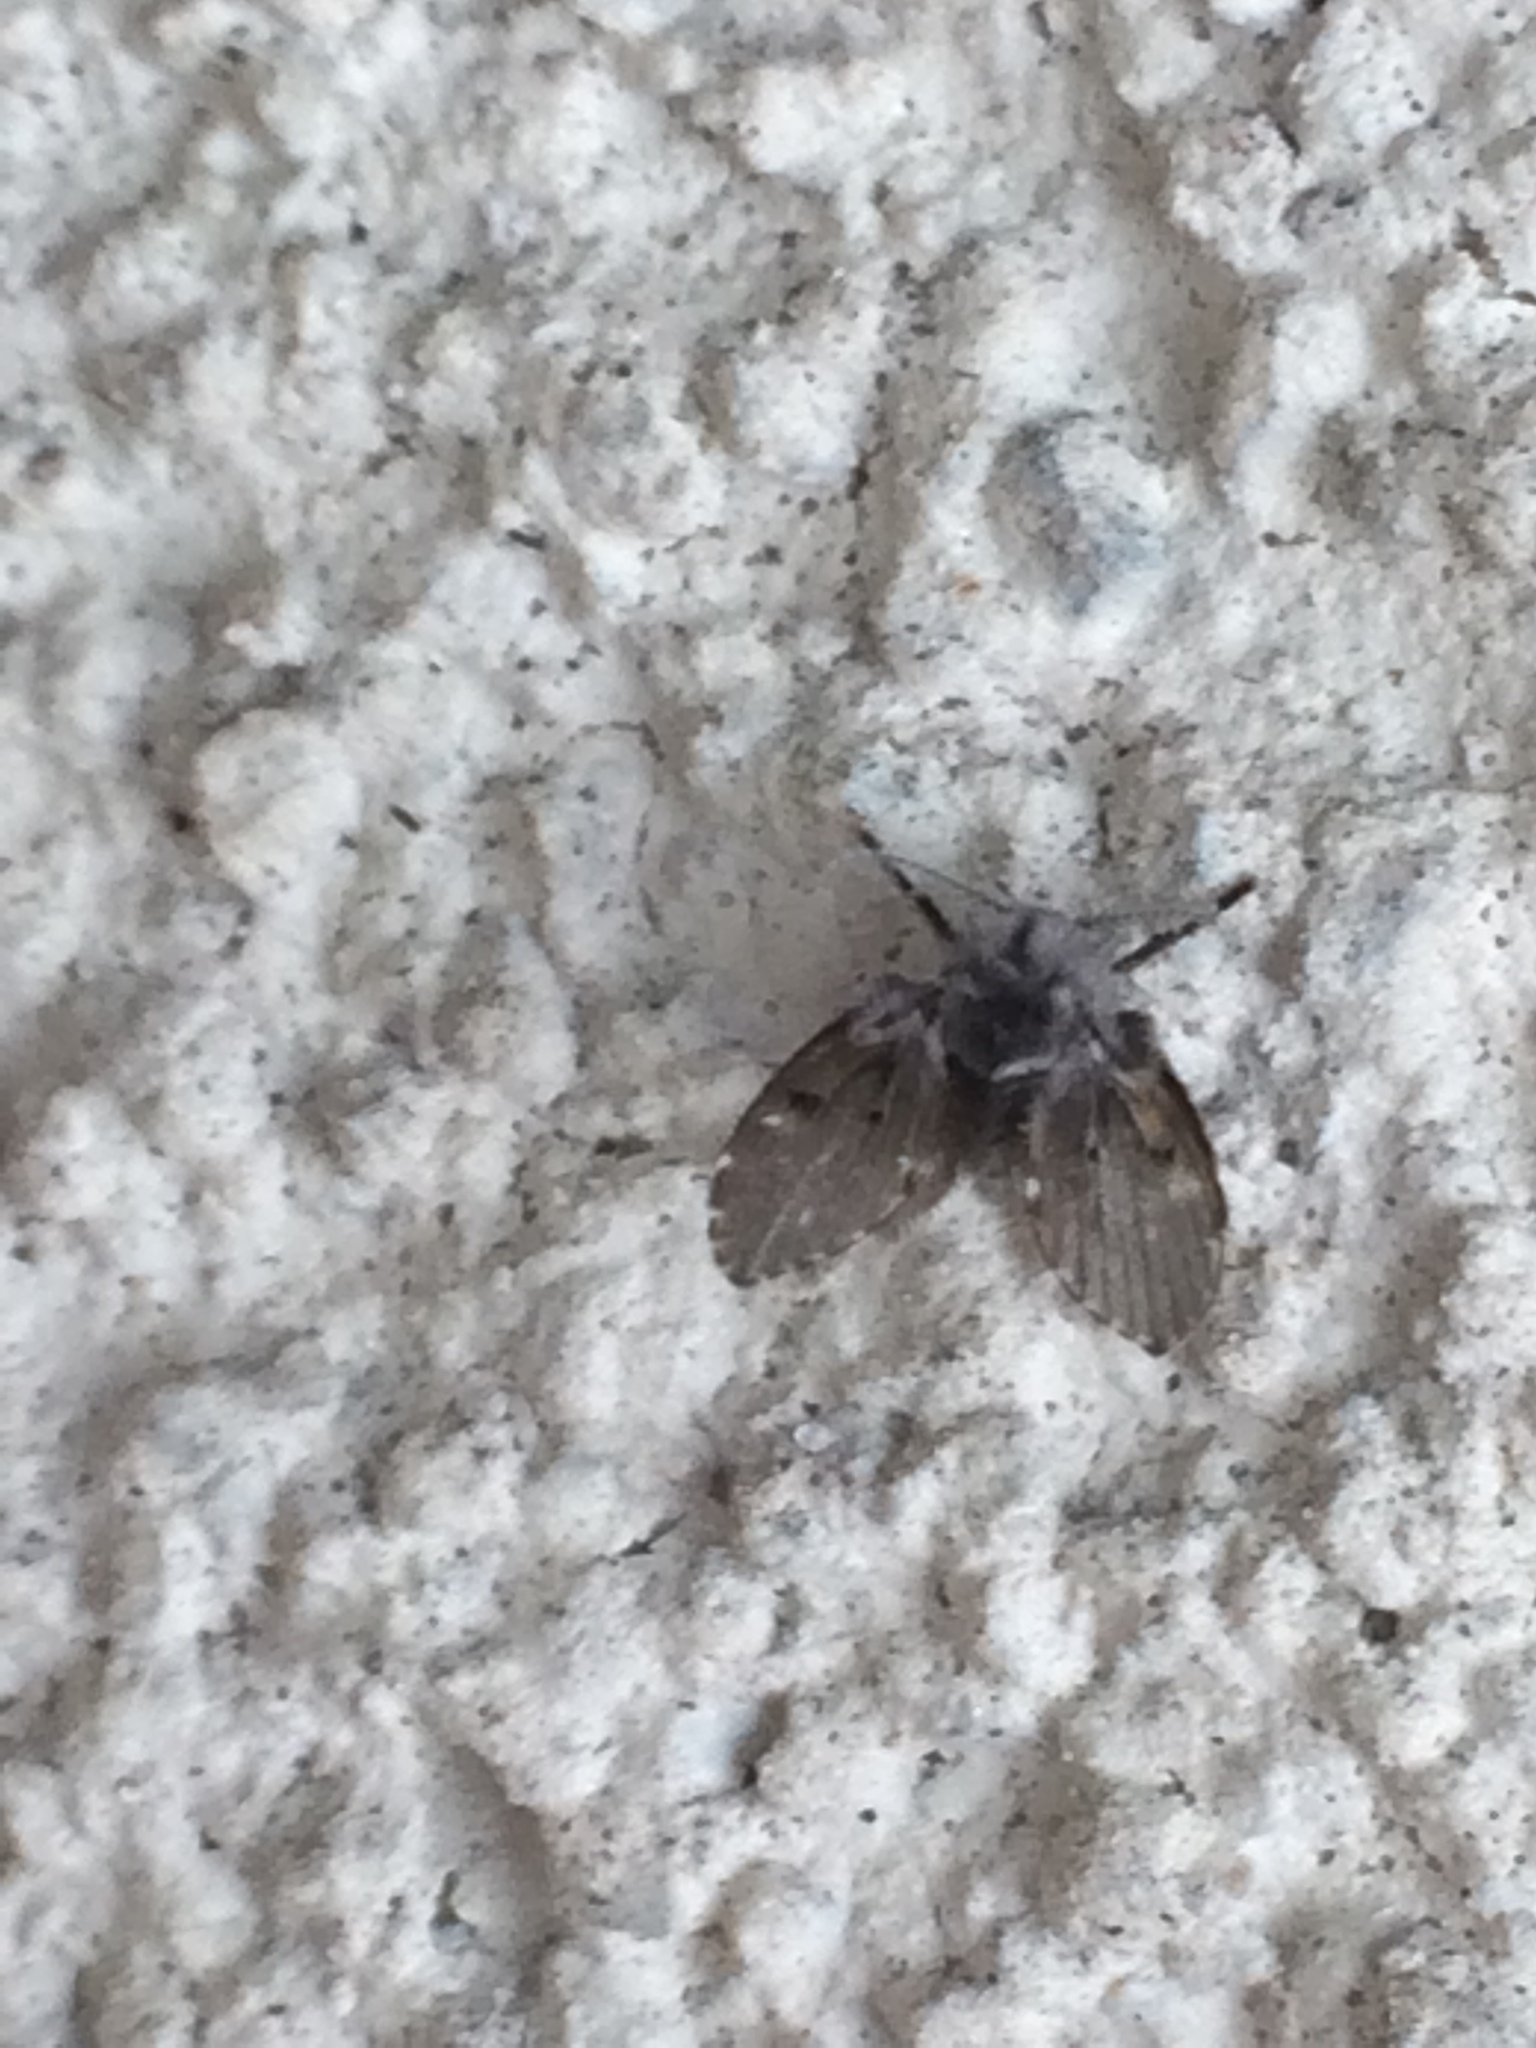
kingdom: Animalia
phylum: Arthropoda
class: Insecta
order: Diptera
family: Psychodidae
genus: Clogmia
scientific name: Clogmia albipunctatus
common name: White-spotted moth fly
